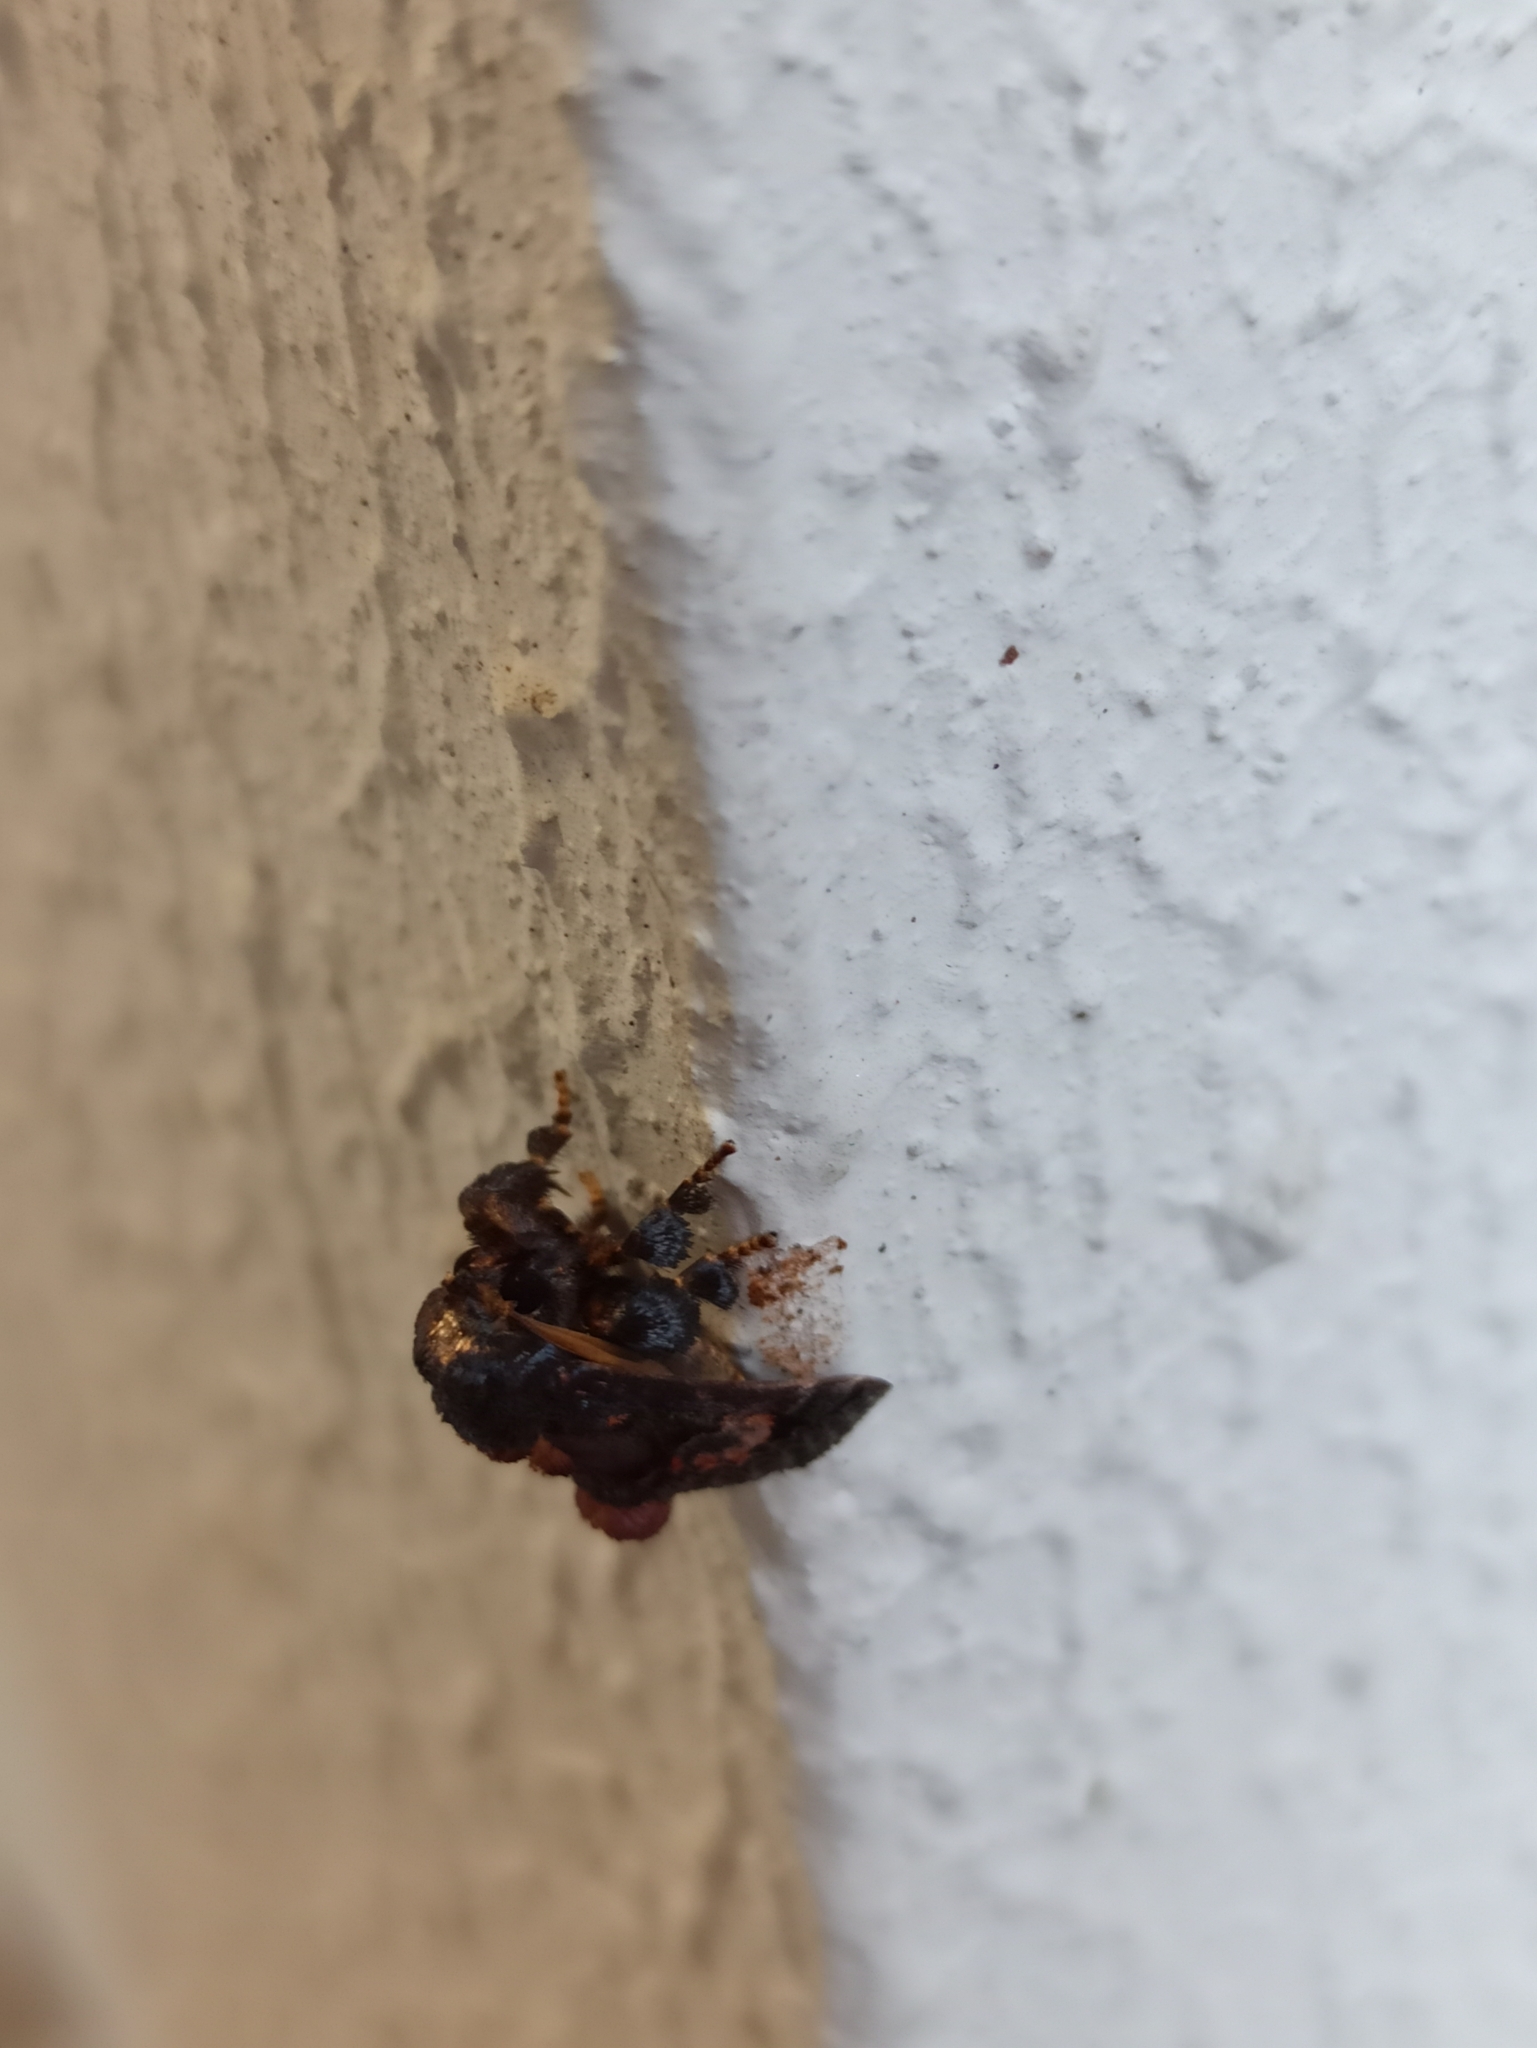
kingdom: Animalia
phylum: Arthropoda
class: Insecta
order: Lepidoptera
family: Limacodidae
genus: Euphobetron
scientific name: Euphobetron cupreitincta
